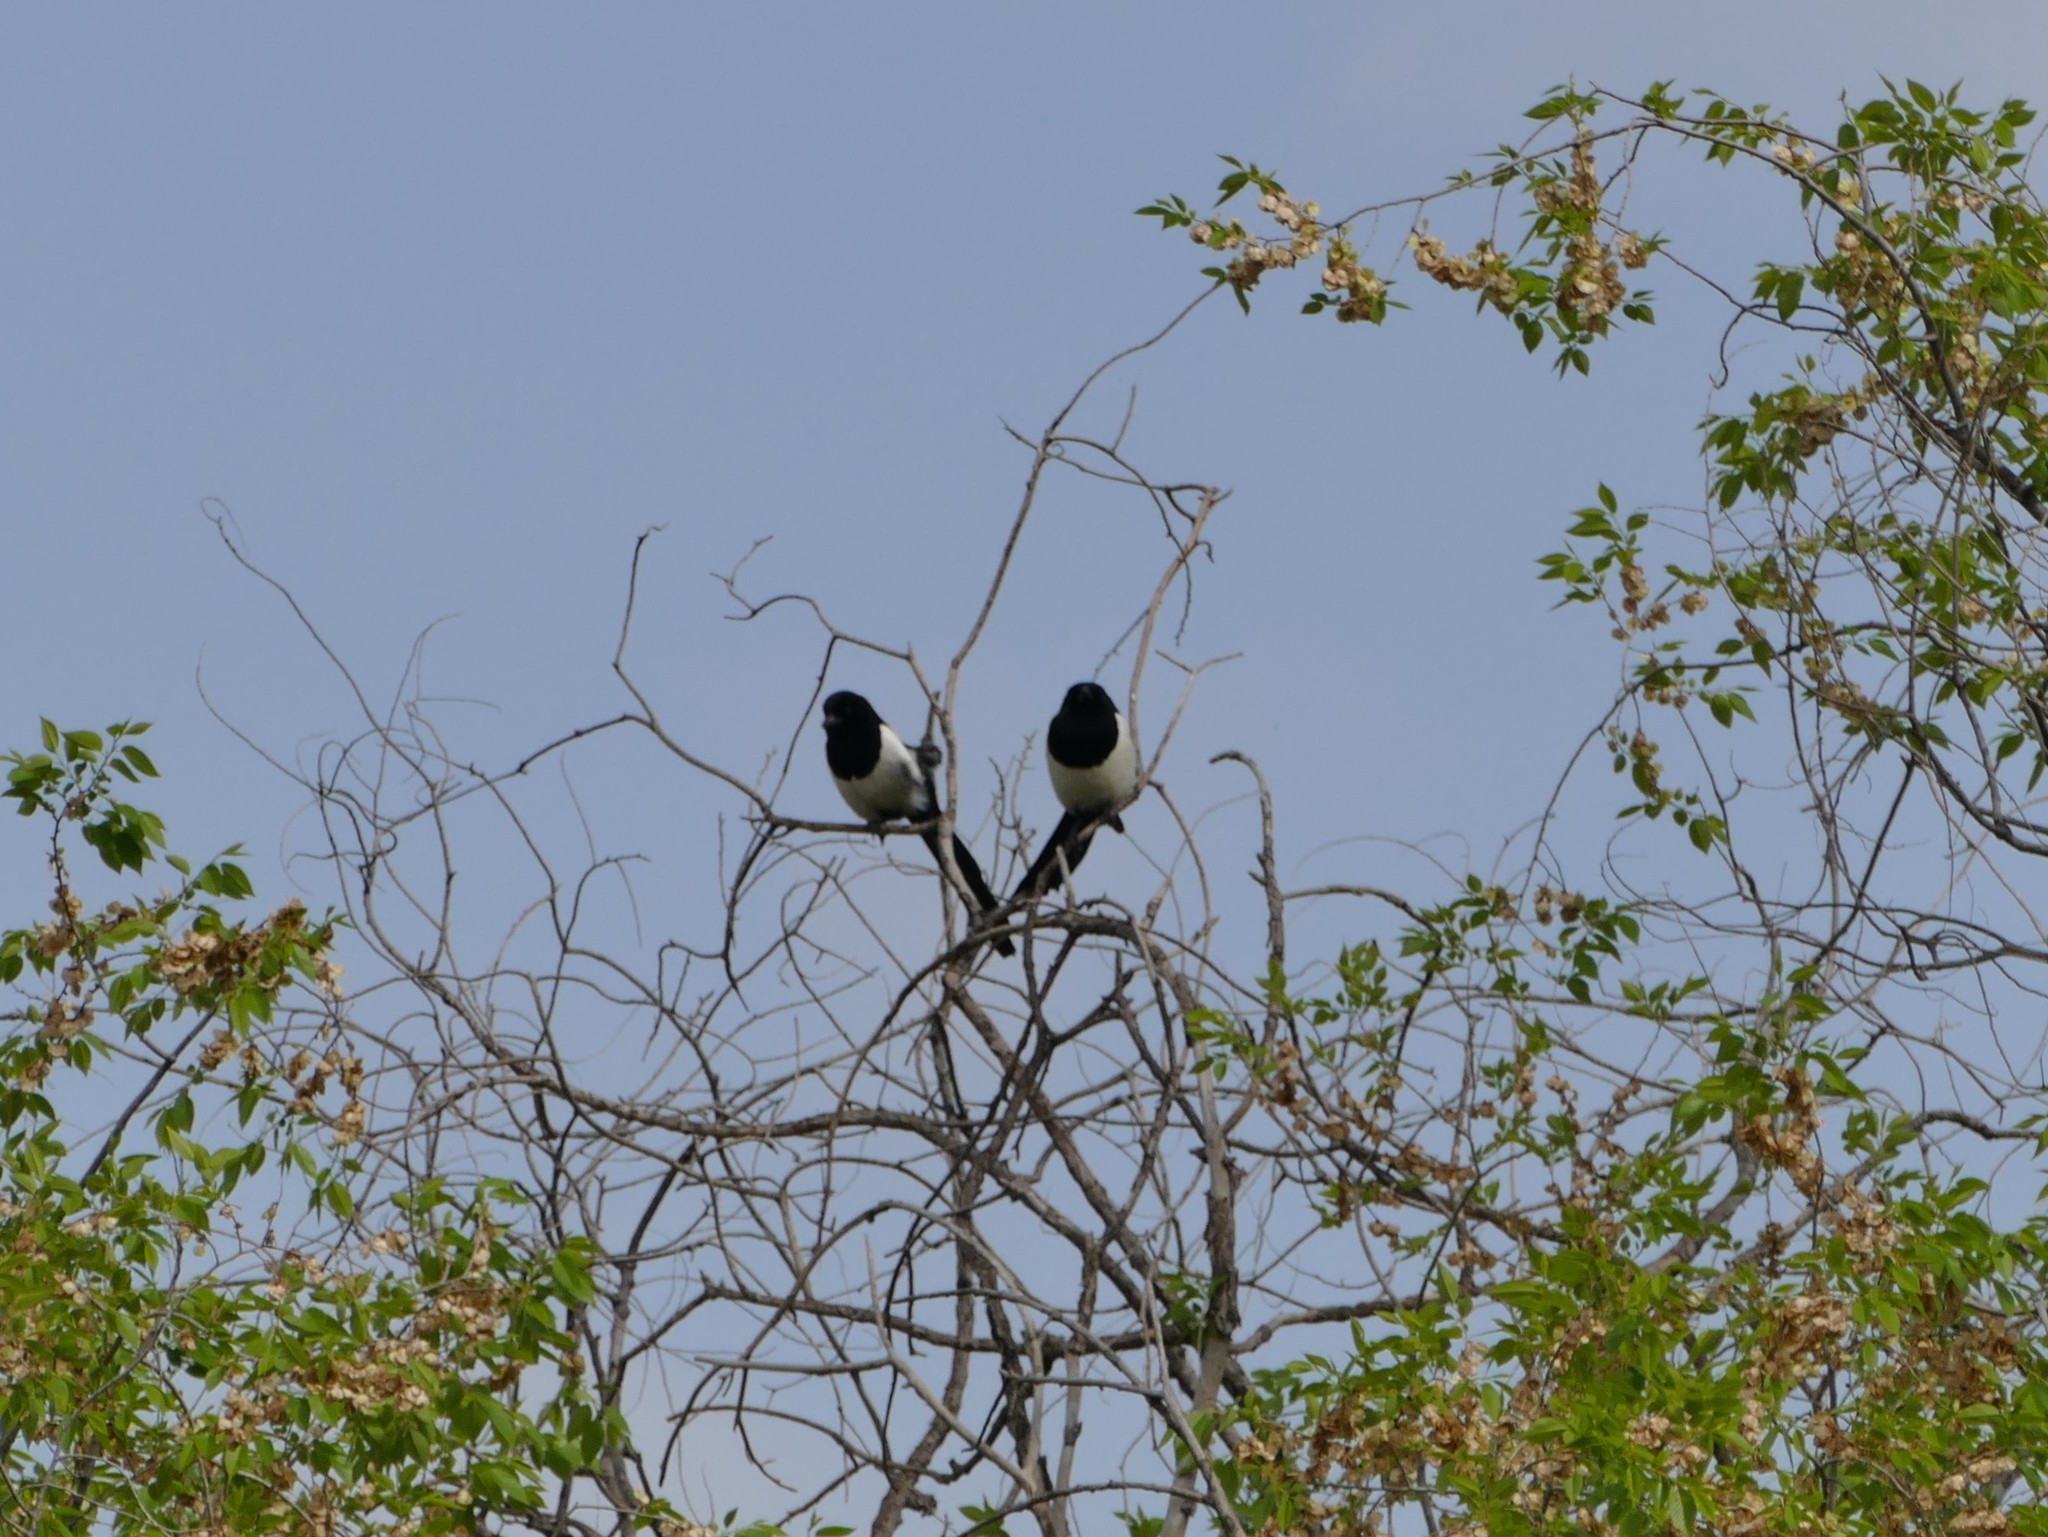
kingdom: Animalia
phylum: Chordata
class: Aves
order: Passeriformes
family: Corvidae
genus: Pica
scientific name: Pica pica
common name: Eurasian magpie
